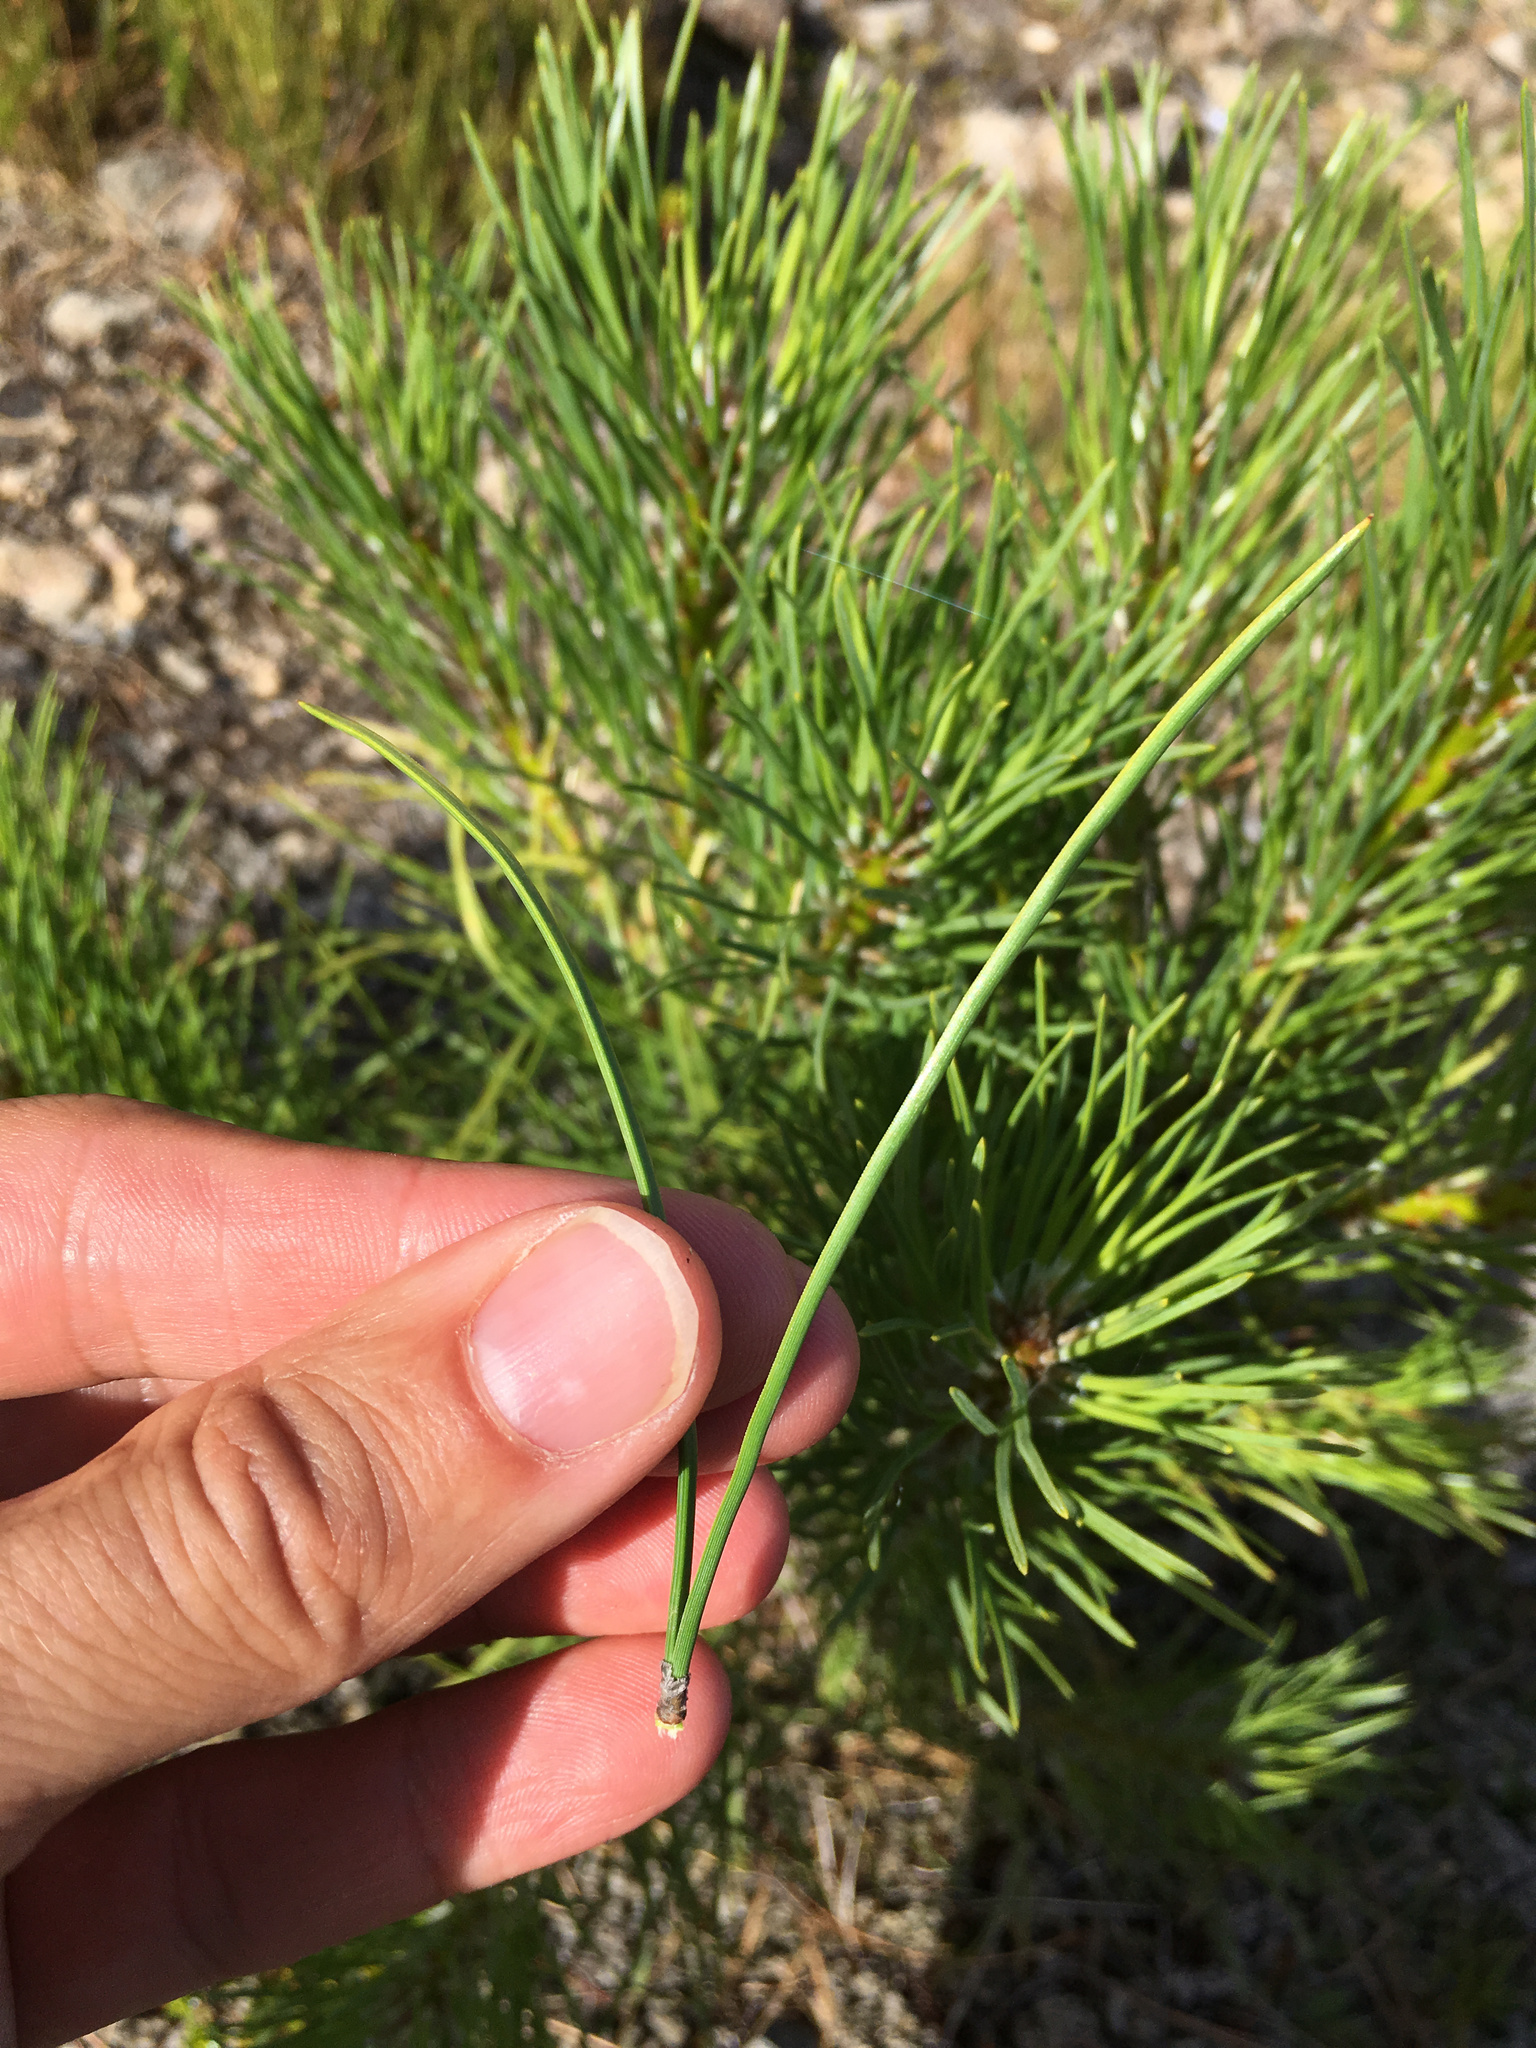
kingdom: Plantae
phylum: Tracheophyta
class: Pinopsida
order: Pinales
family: Pinaceae
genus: Pinus
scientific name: Pinus nigra
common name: Austrian pine
